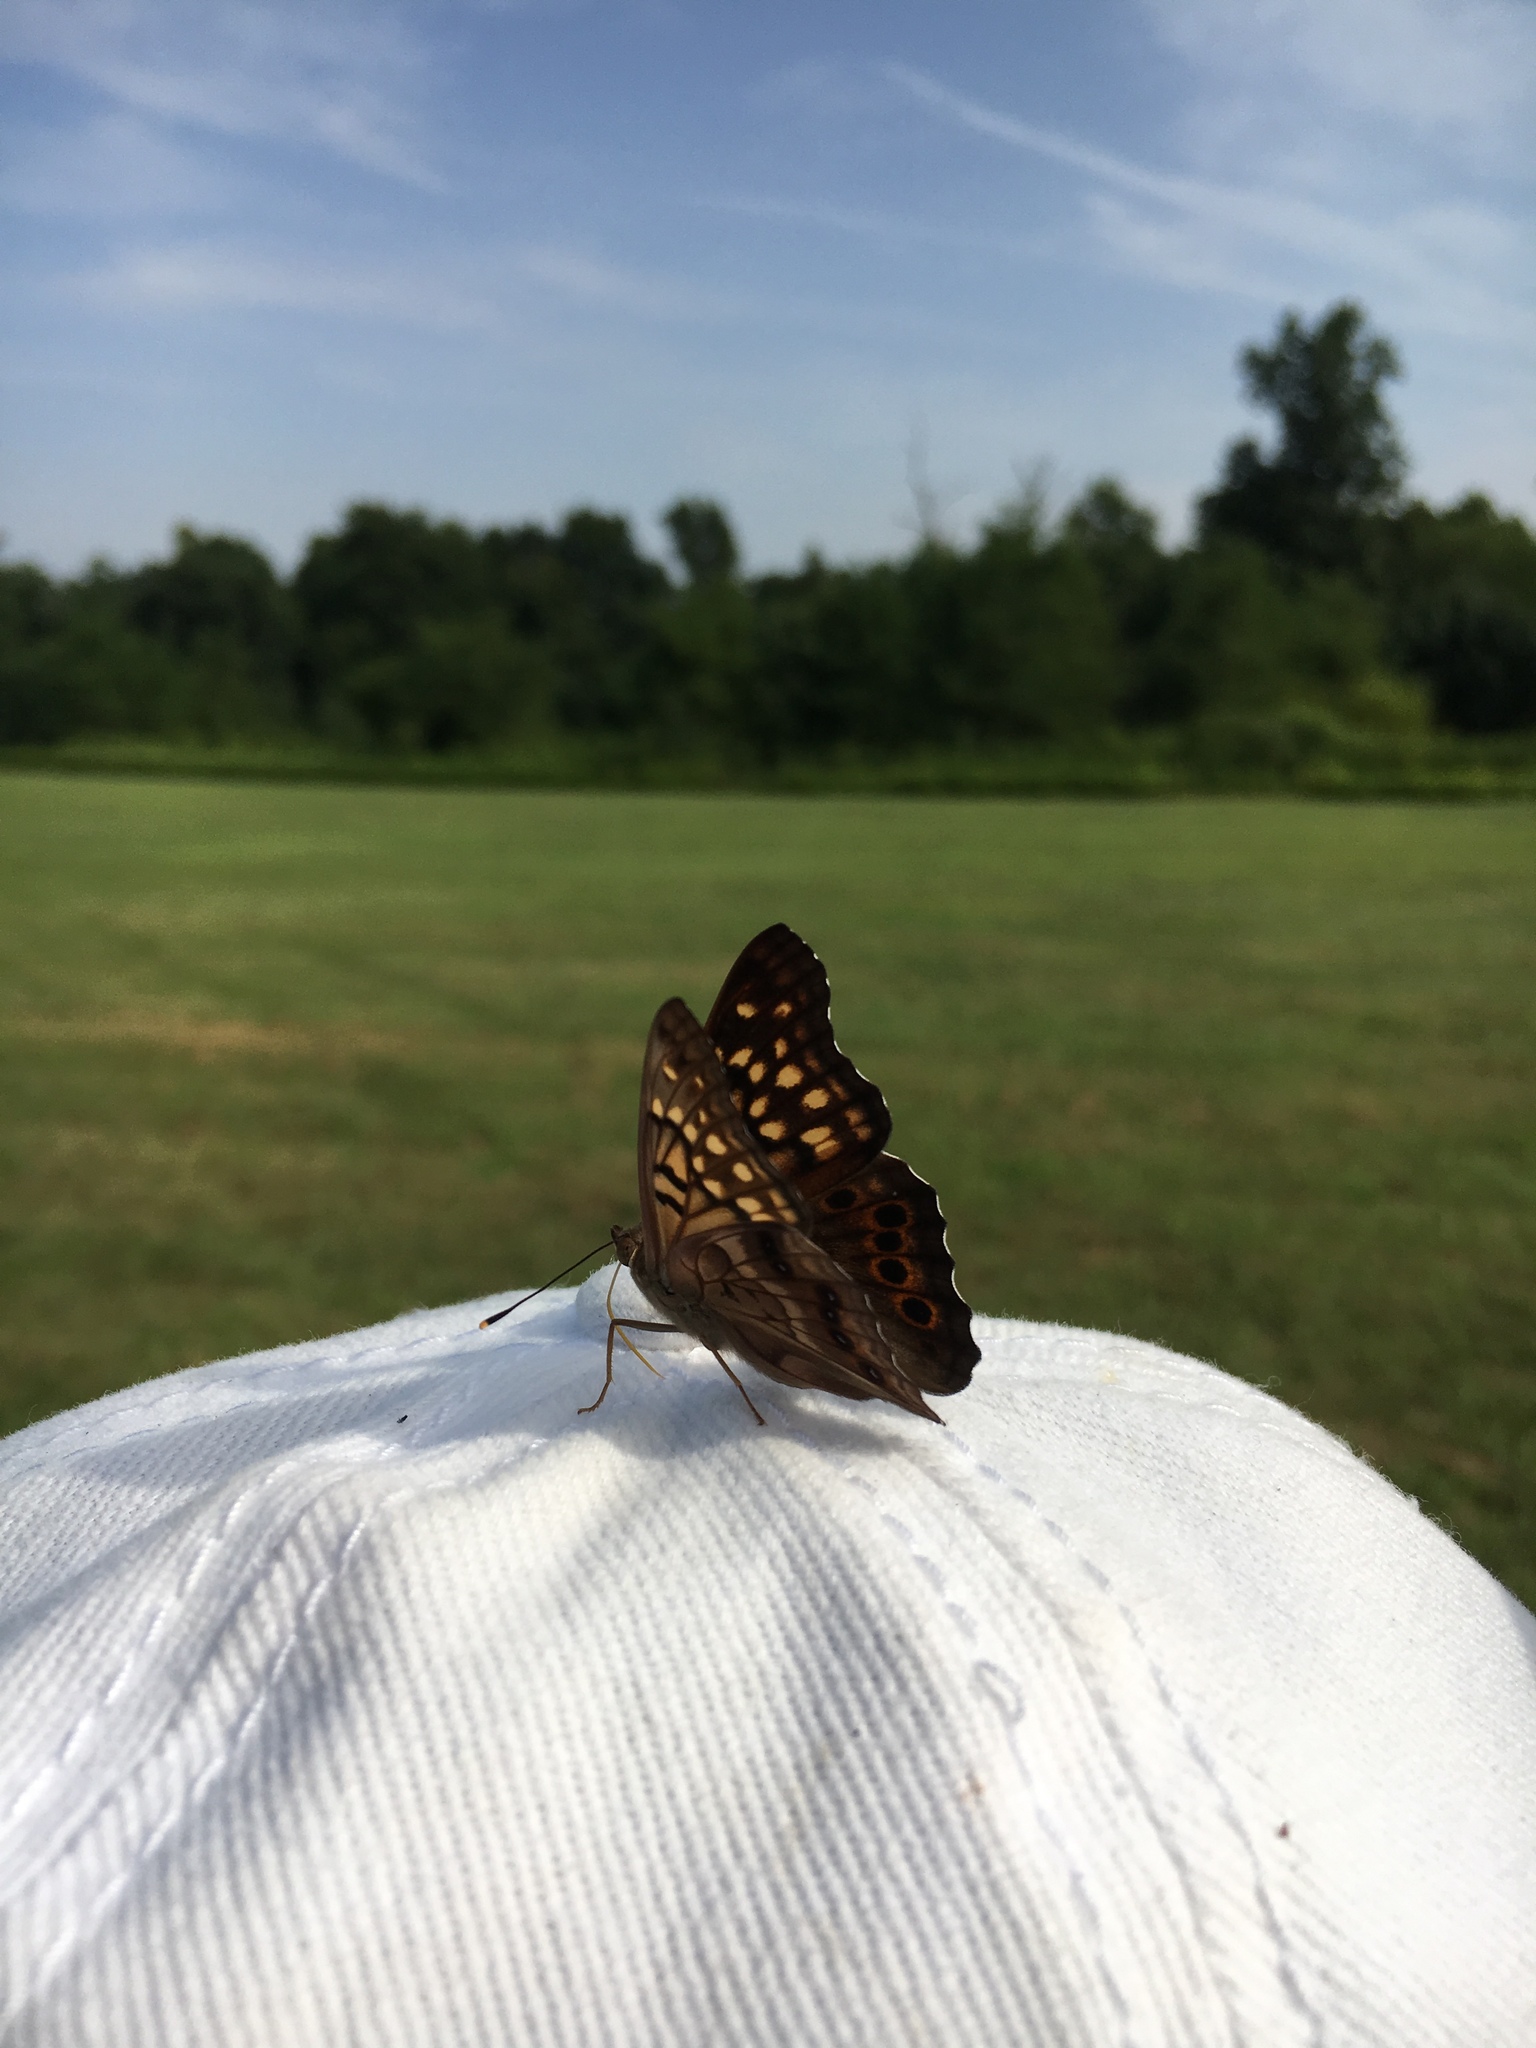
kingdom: Animalia
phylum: Arthropoda
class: Insecta
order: Lepidoptera
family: Nymphalidae
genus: Asterocampa
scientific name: Asterocampa clyton
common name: Tawny emperor
